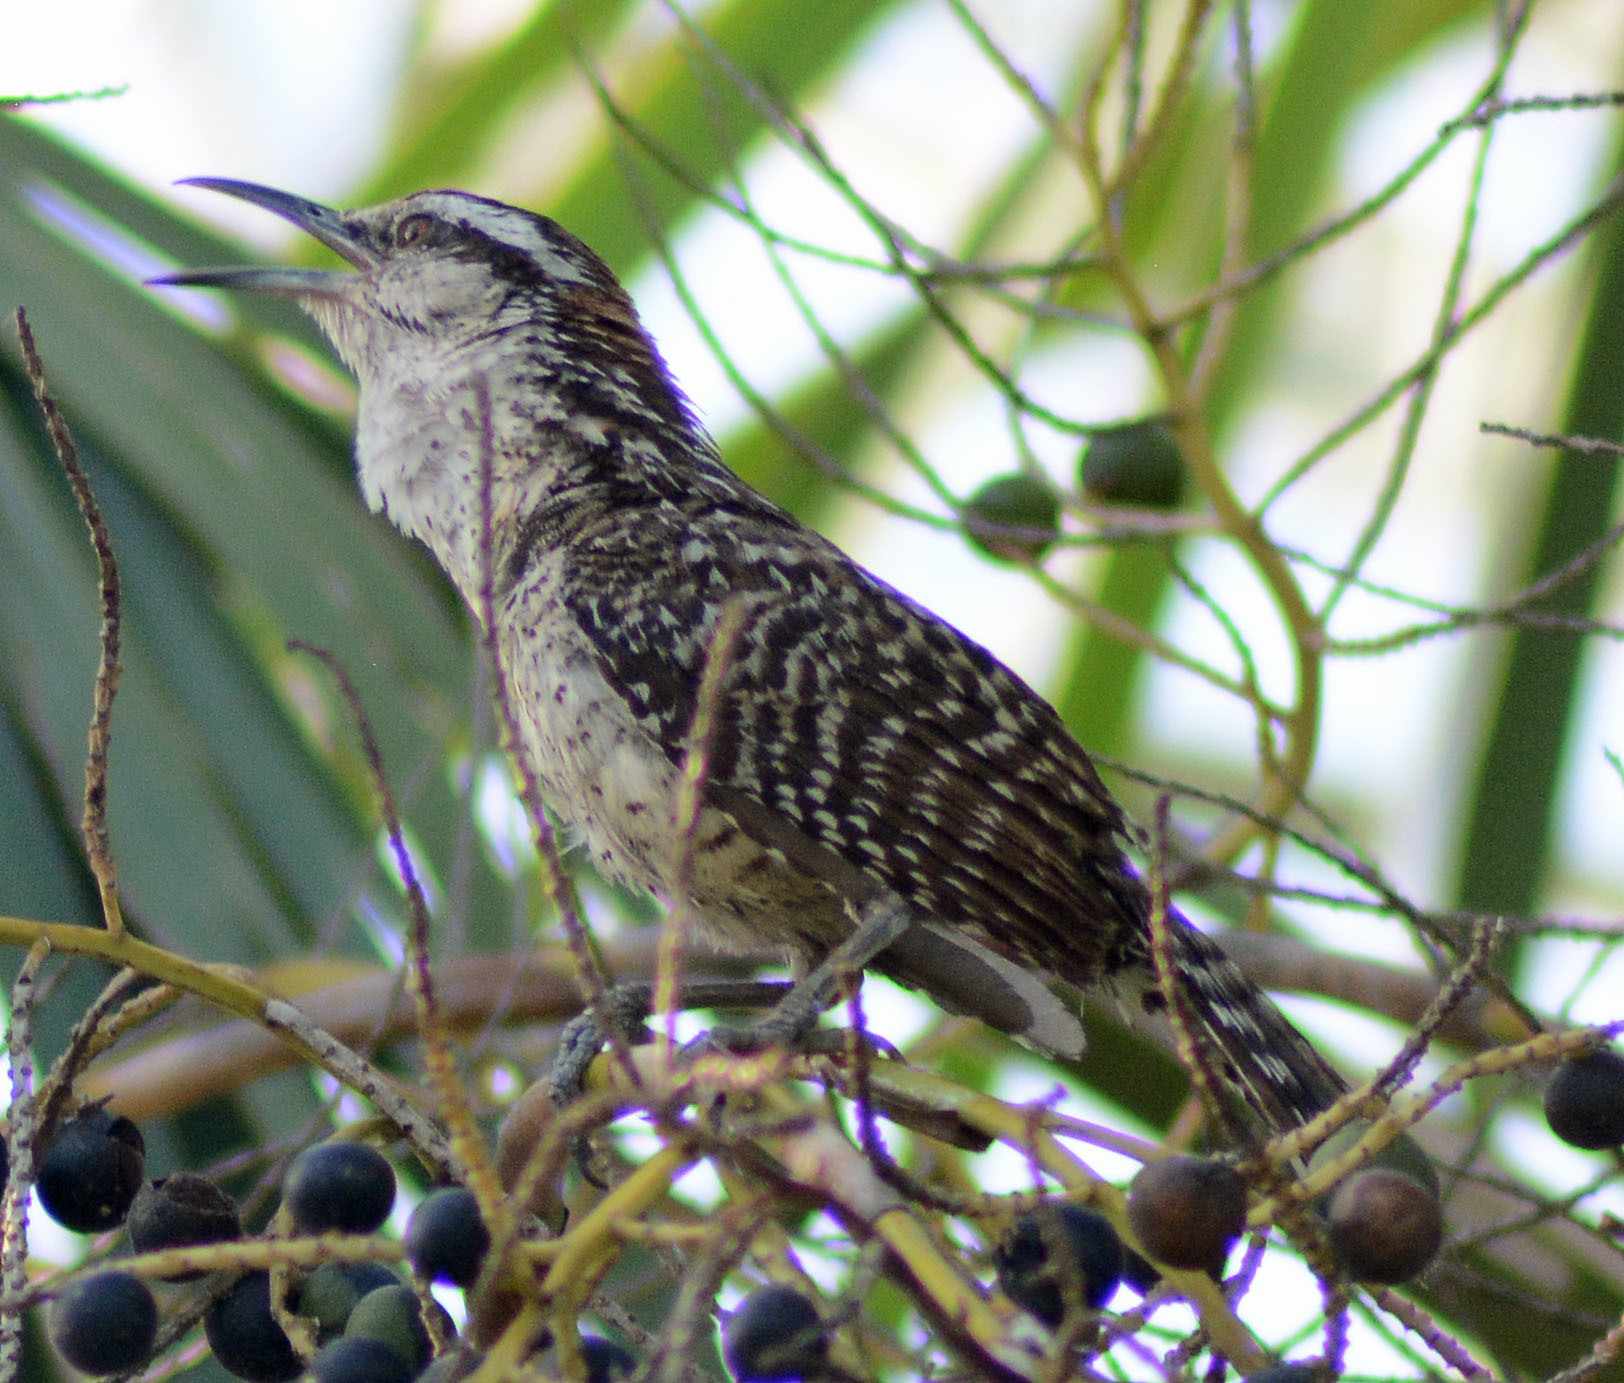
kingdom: Animalia
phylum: Chordata
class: Aves
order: Passeriformes
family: Troglodytidae
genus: Campylorhynchus
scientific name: Campylorhynchus rufinucha
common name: Rufous-naped wren
